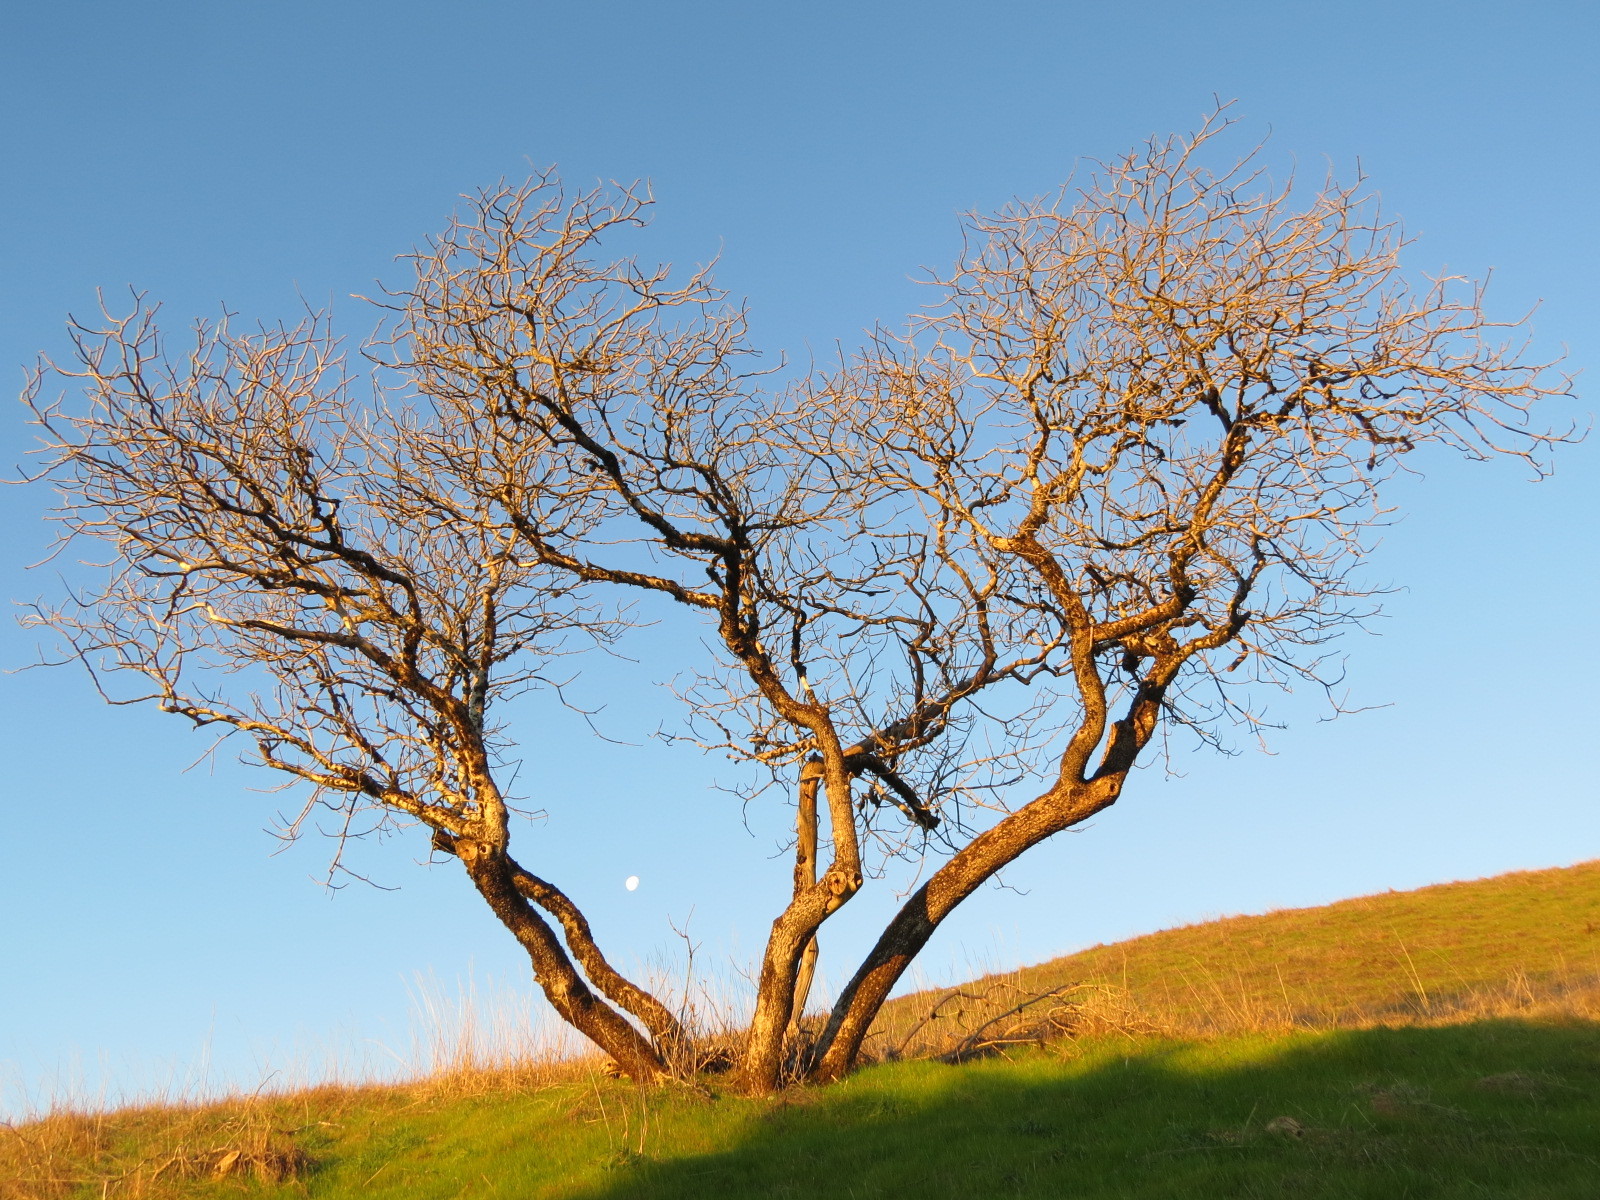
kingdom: Plantae
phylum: Tracheophyta
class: Magnoliopsida
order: Sapindales
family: Sapindaceae
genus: Aesculus
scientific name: Aesculus californica
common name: California buckeye
